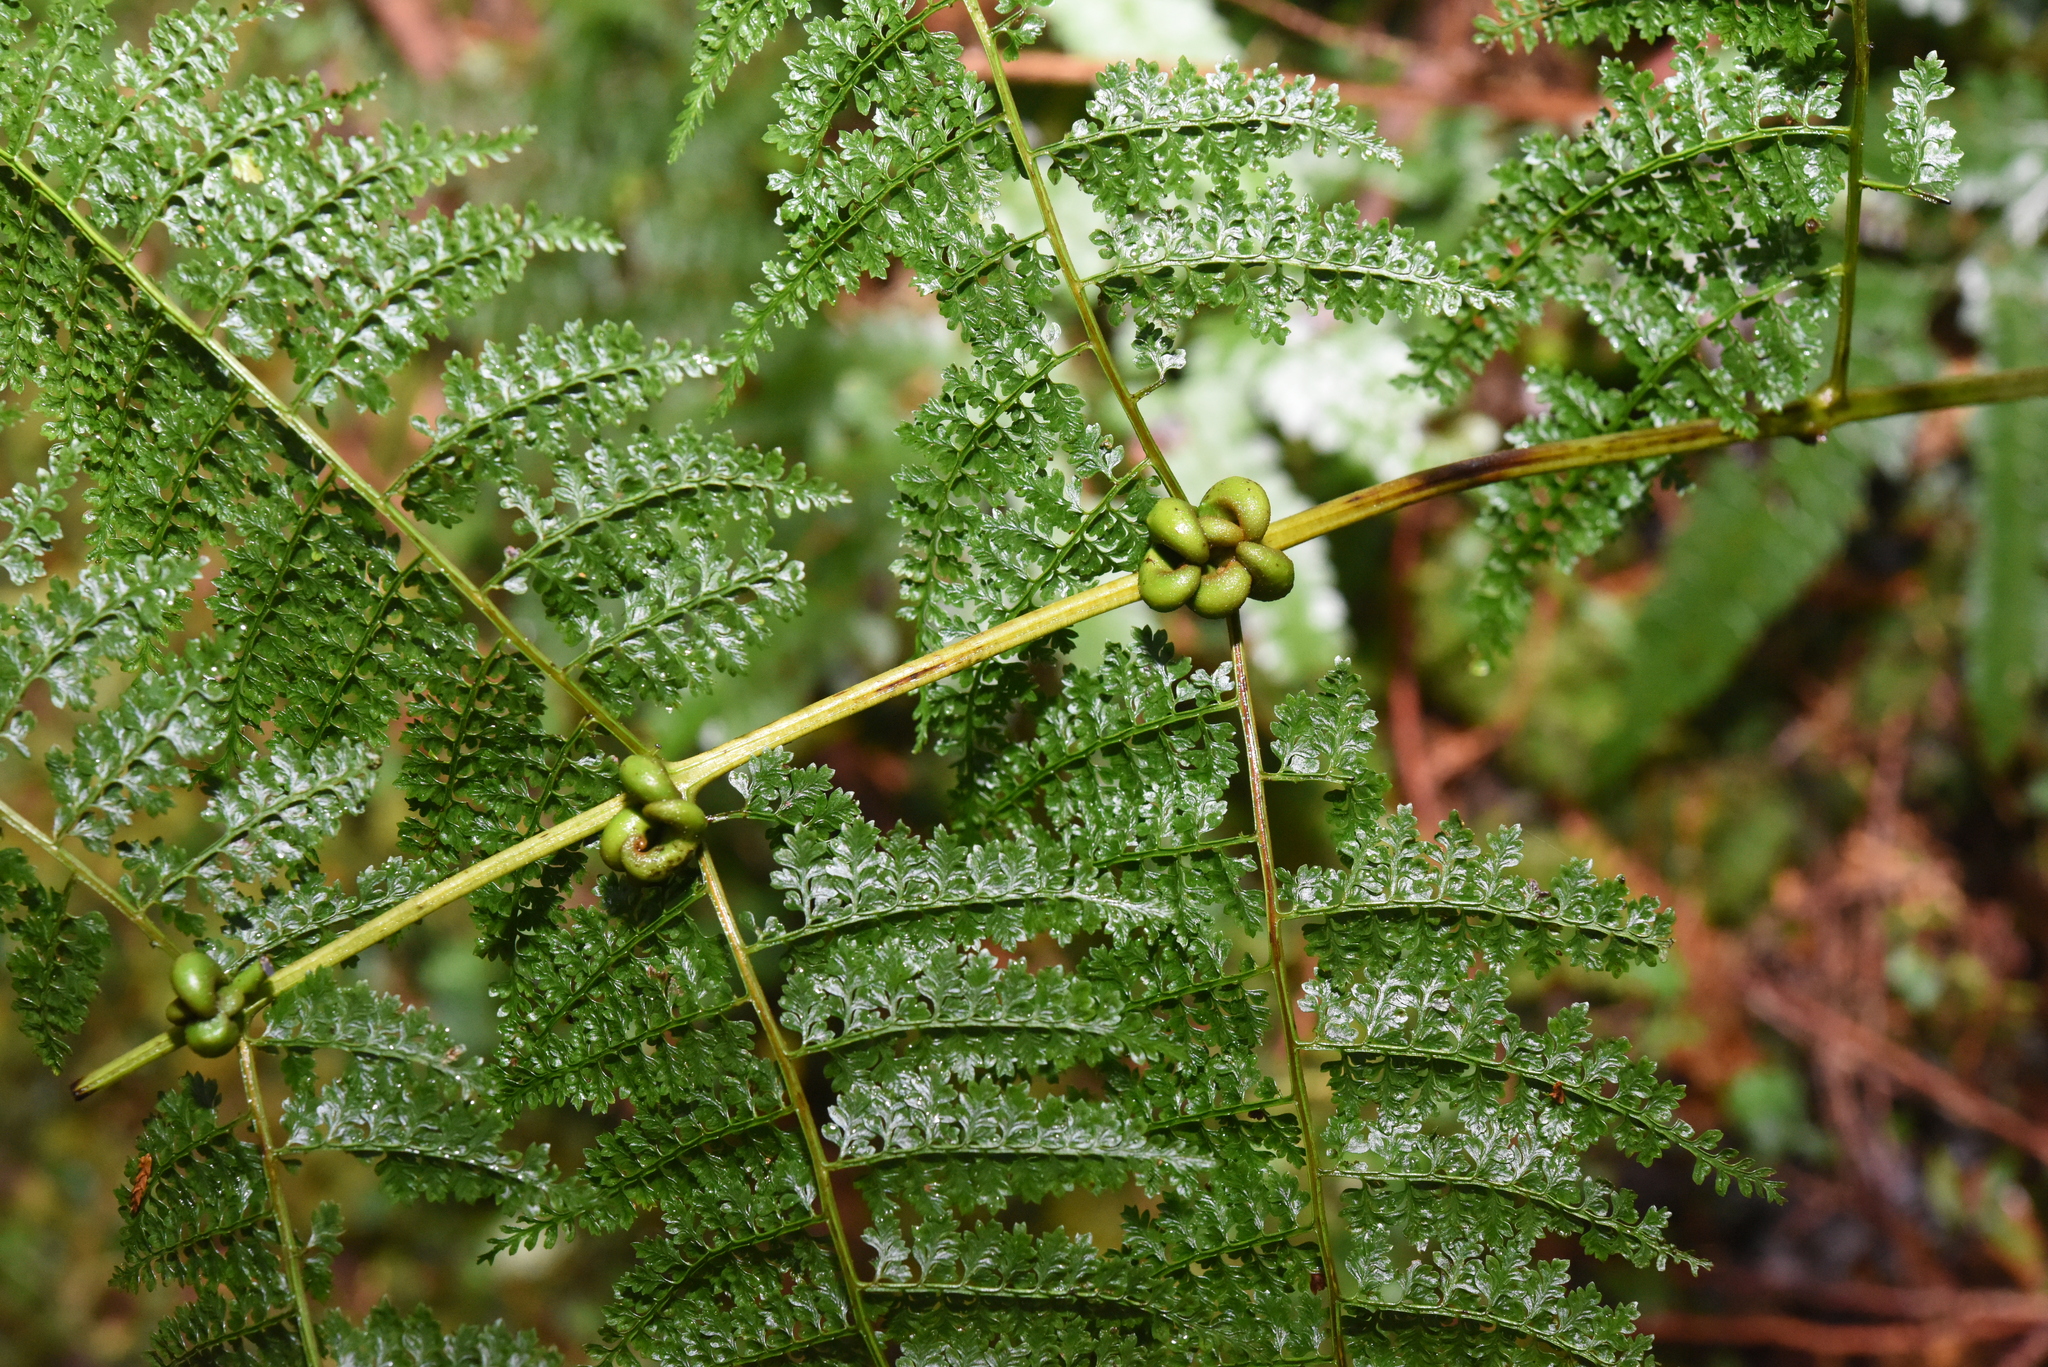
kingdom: Plantae
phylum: Tracheophyta
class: Polypodiopsida
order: Polypodiales
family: Dennstaedtiaceae
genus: Monachosorum
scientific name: Monachosorum henryi
